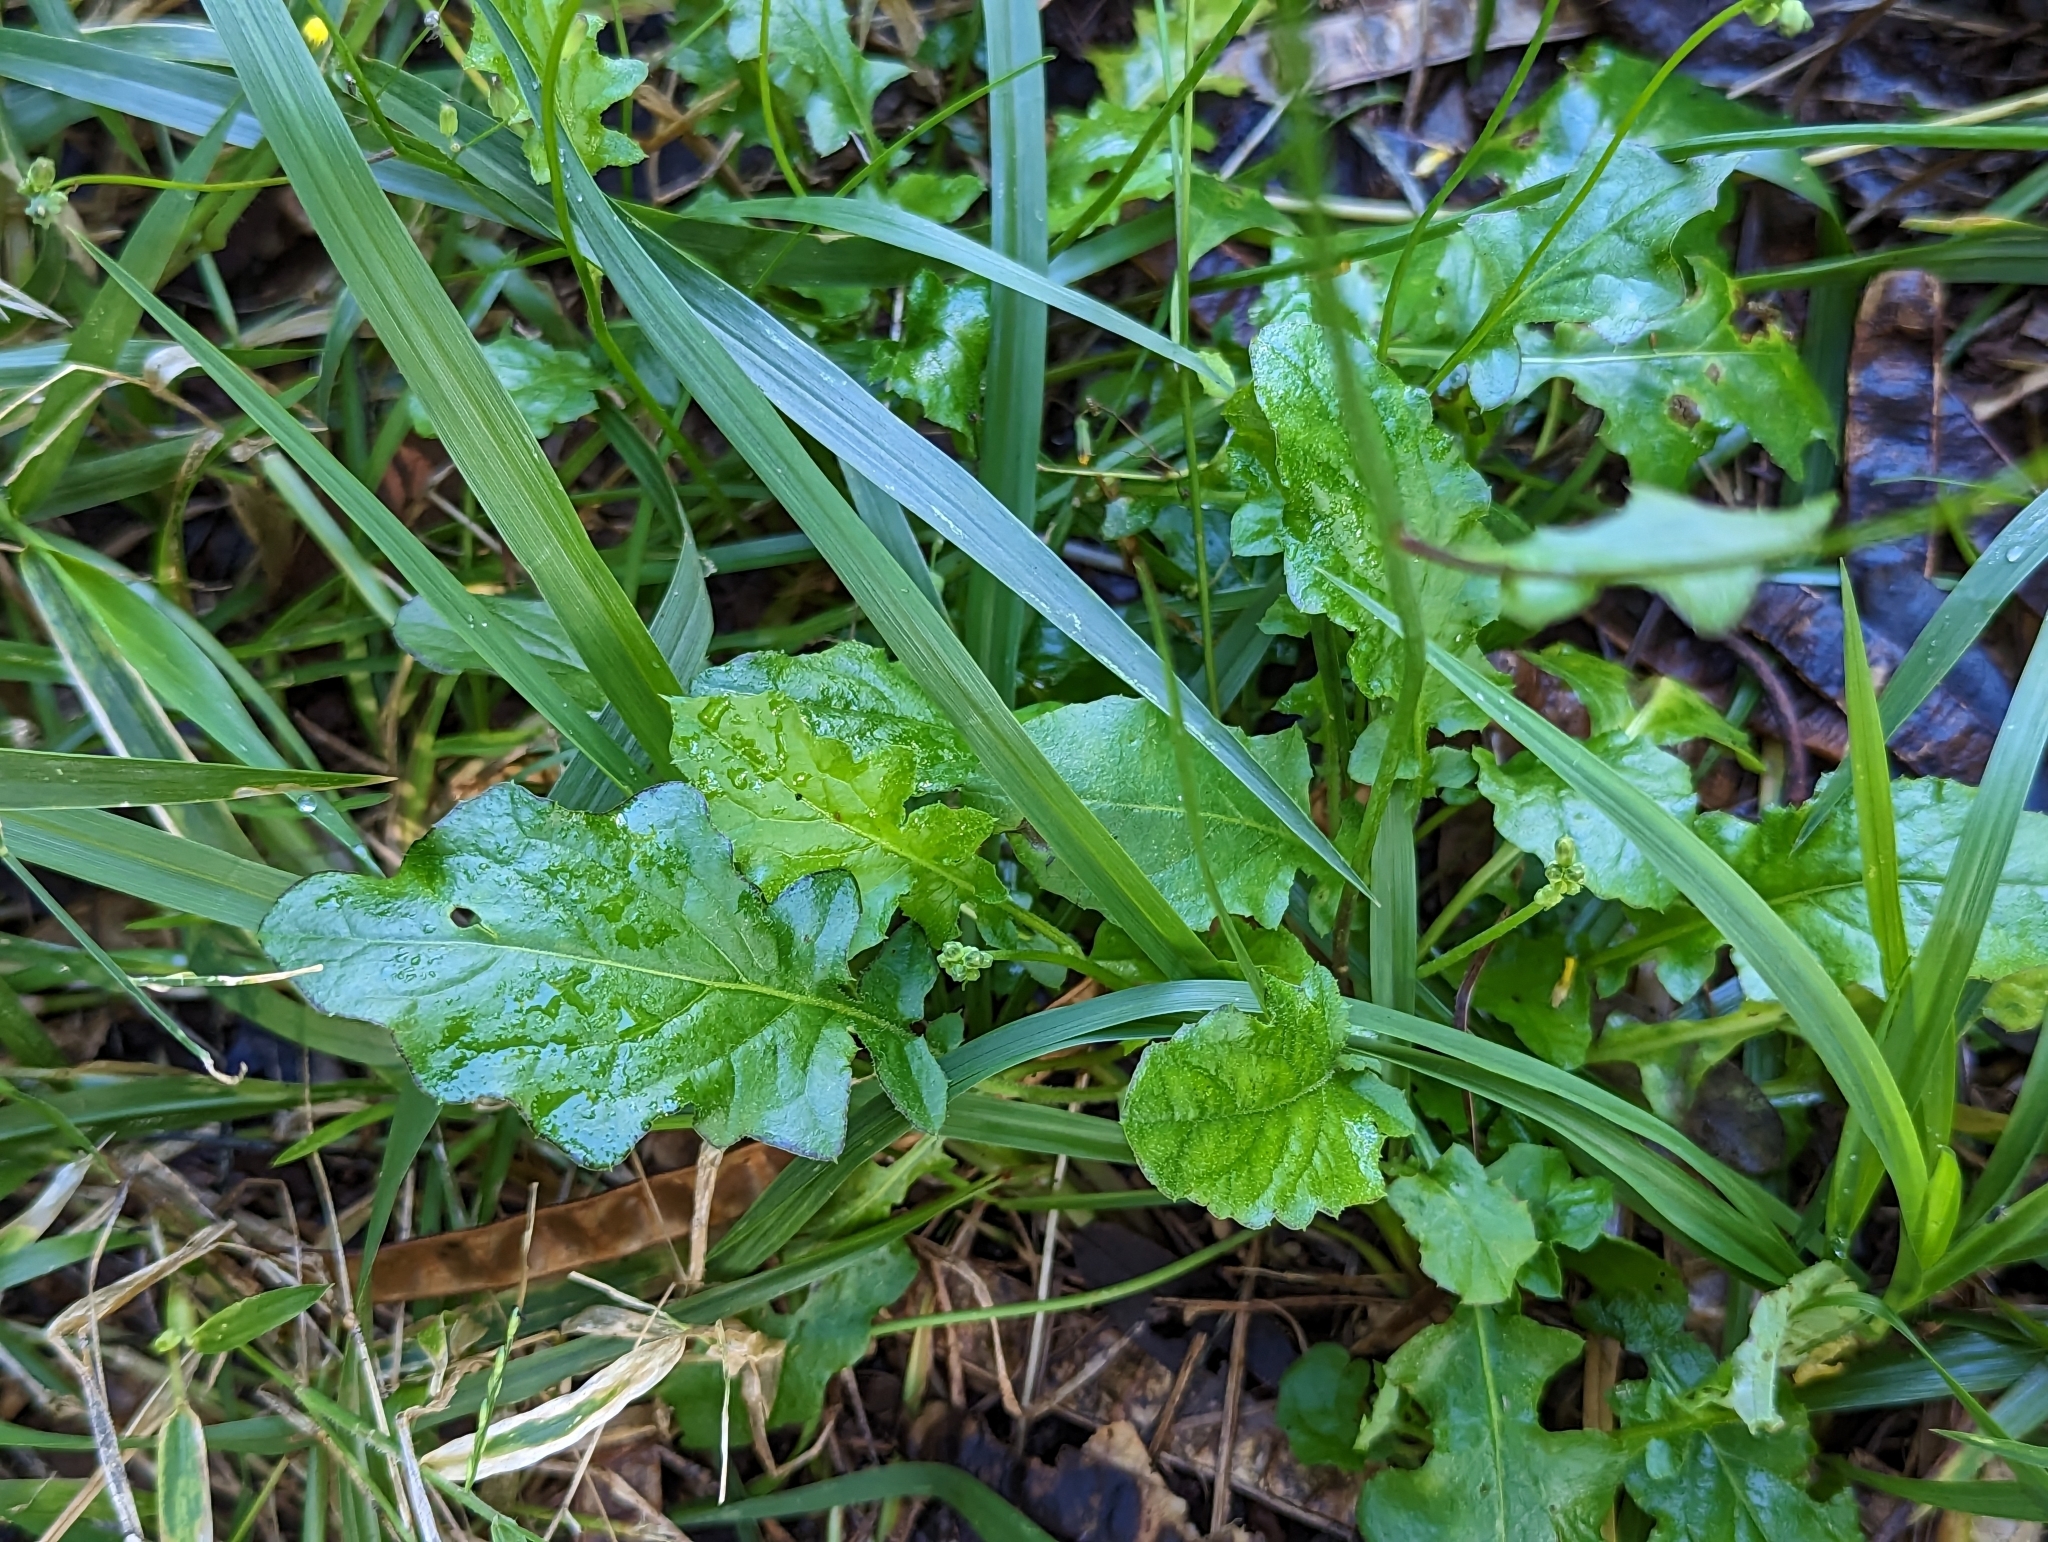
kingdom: Plantae
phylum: Tracheophyta
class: Magnoliopsida
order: Asterales
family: Asteraceae
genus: Youngia
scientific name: Youngia japonica
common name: Oriental false hawksbeard
